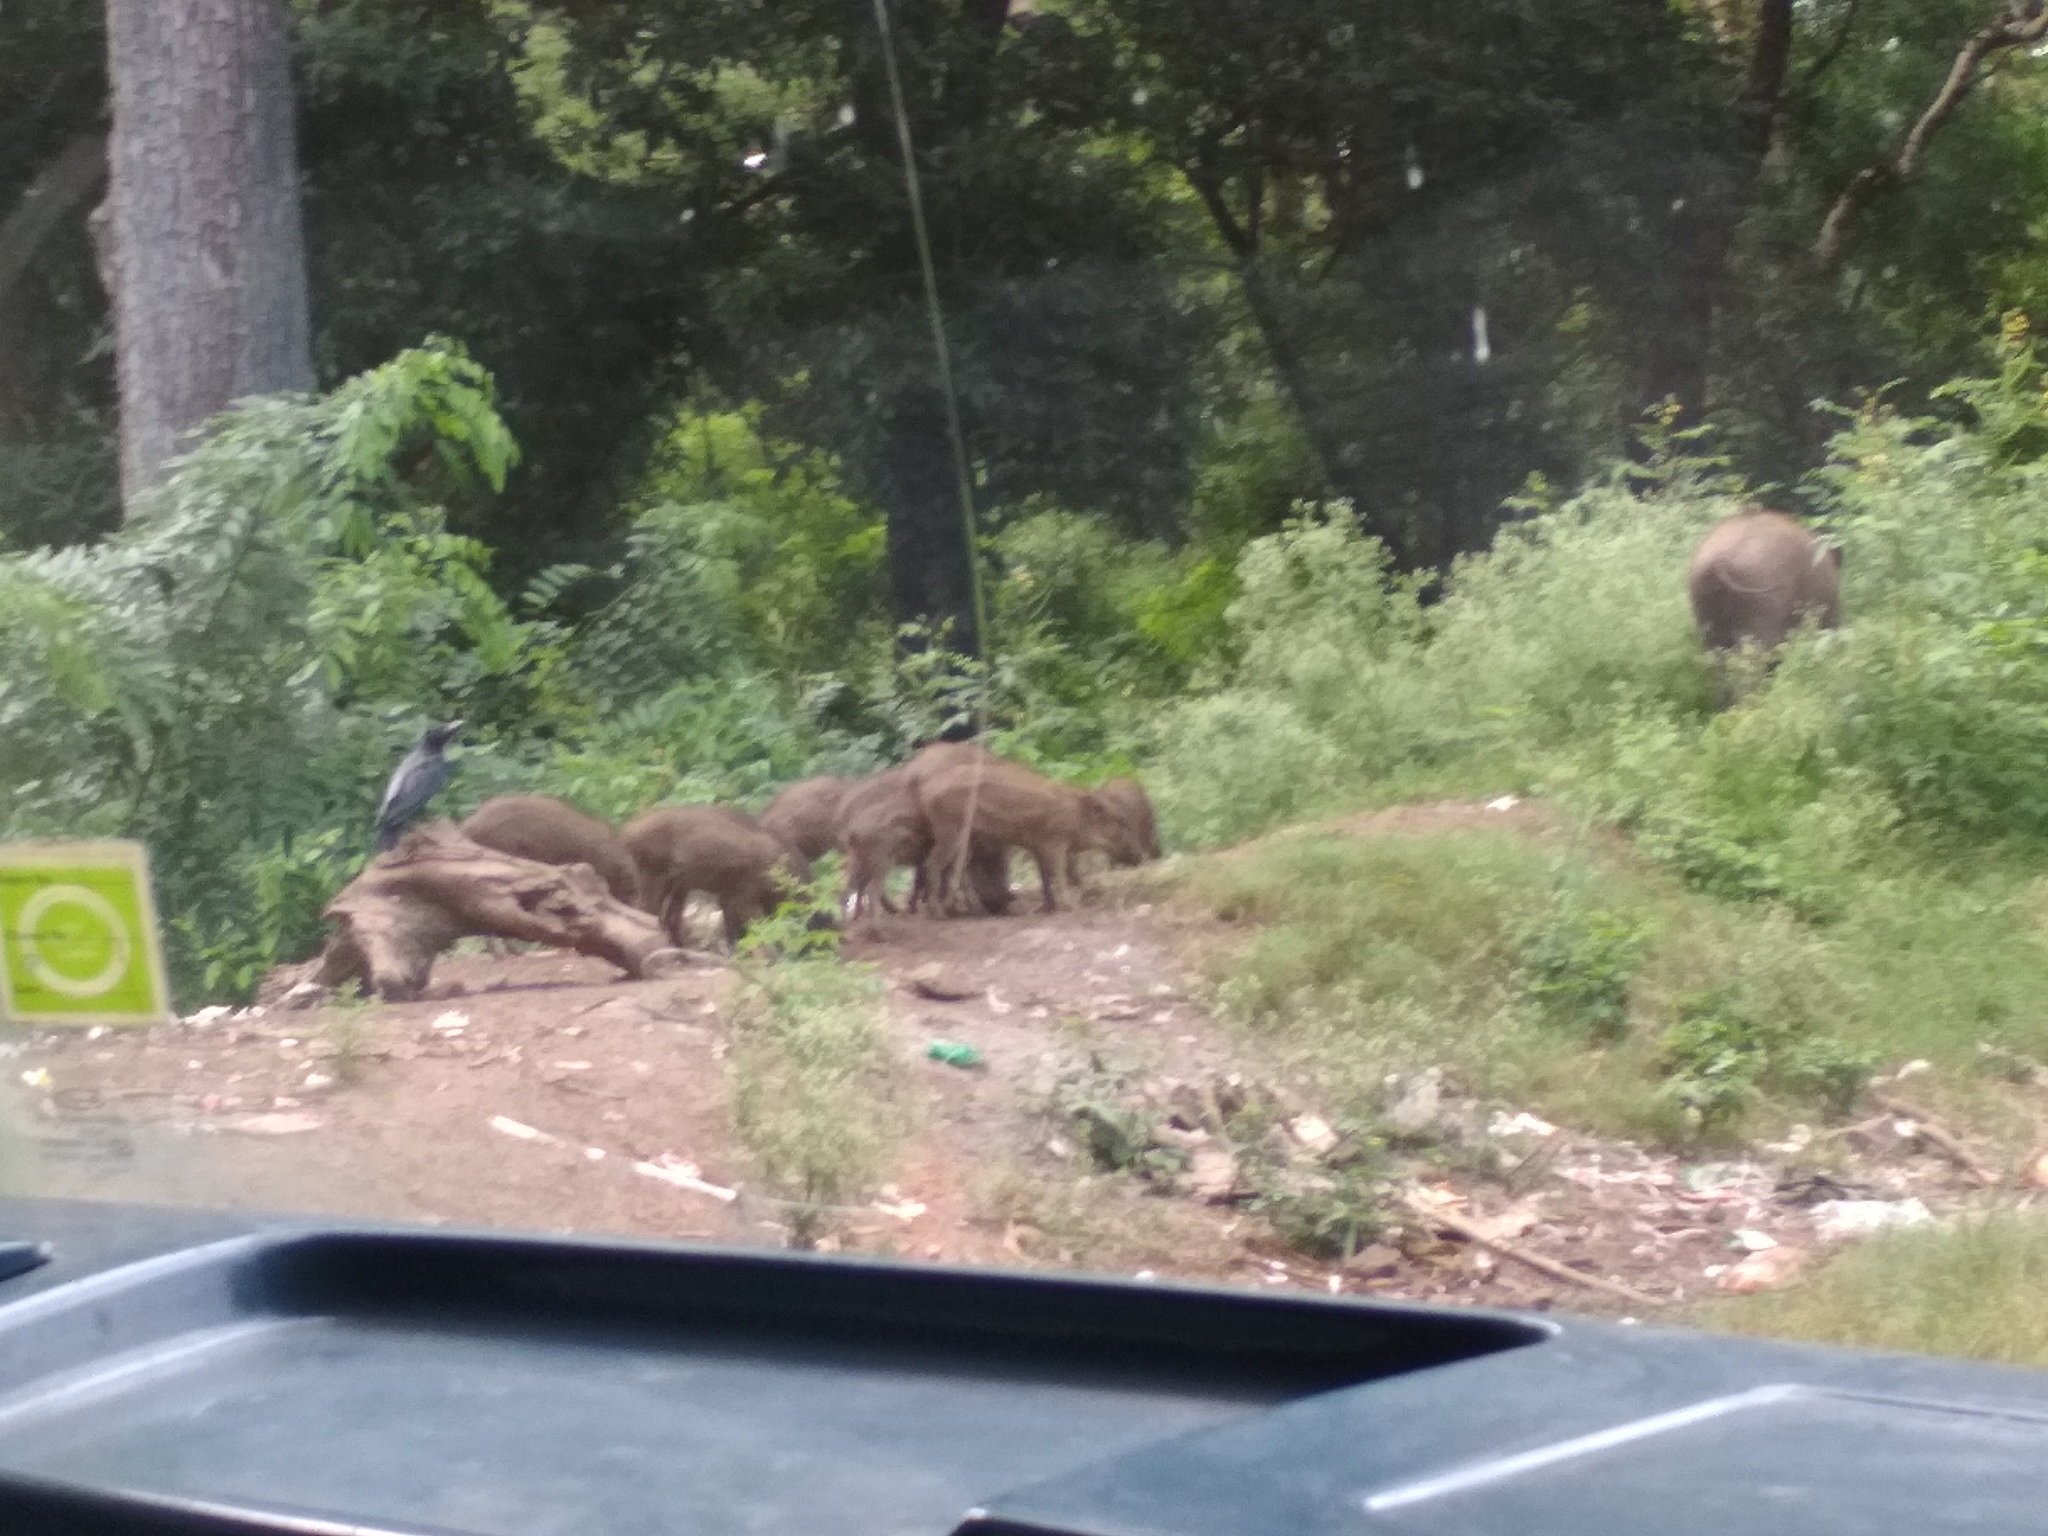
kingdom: Animalia
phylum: Chordata
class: Mammalia
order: Artiodactyla
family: Suidae
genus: Sus
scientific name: Sus scrofa
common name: Wild boar
